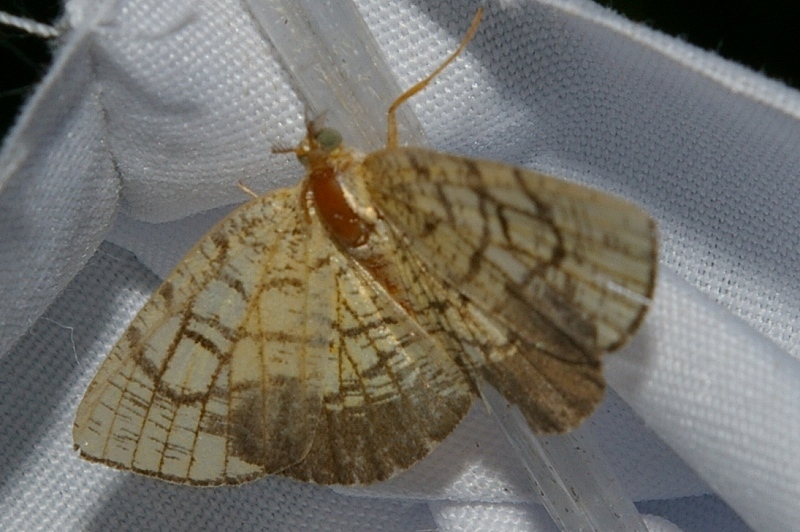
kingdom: Animalia
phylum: Arthropoda
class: Insecta
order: Lepidoptera
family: Geometridae
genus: Cabera
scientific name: Cabera griseolimbata
